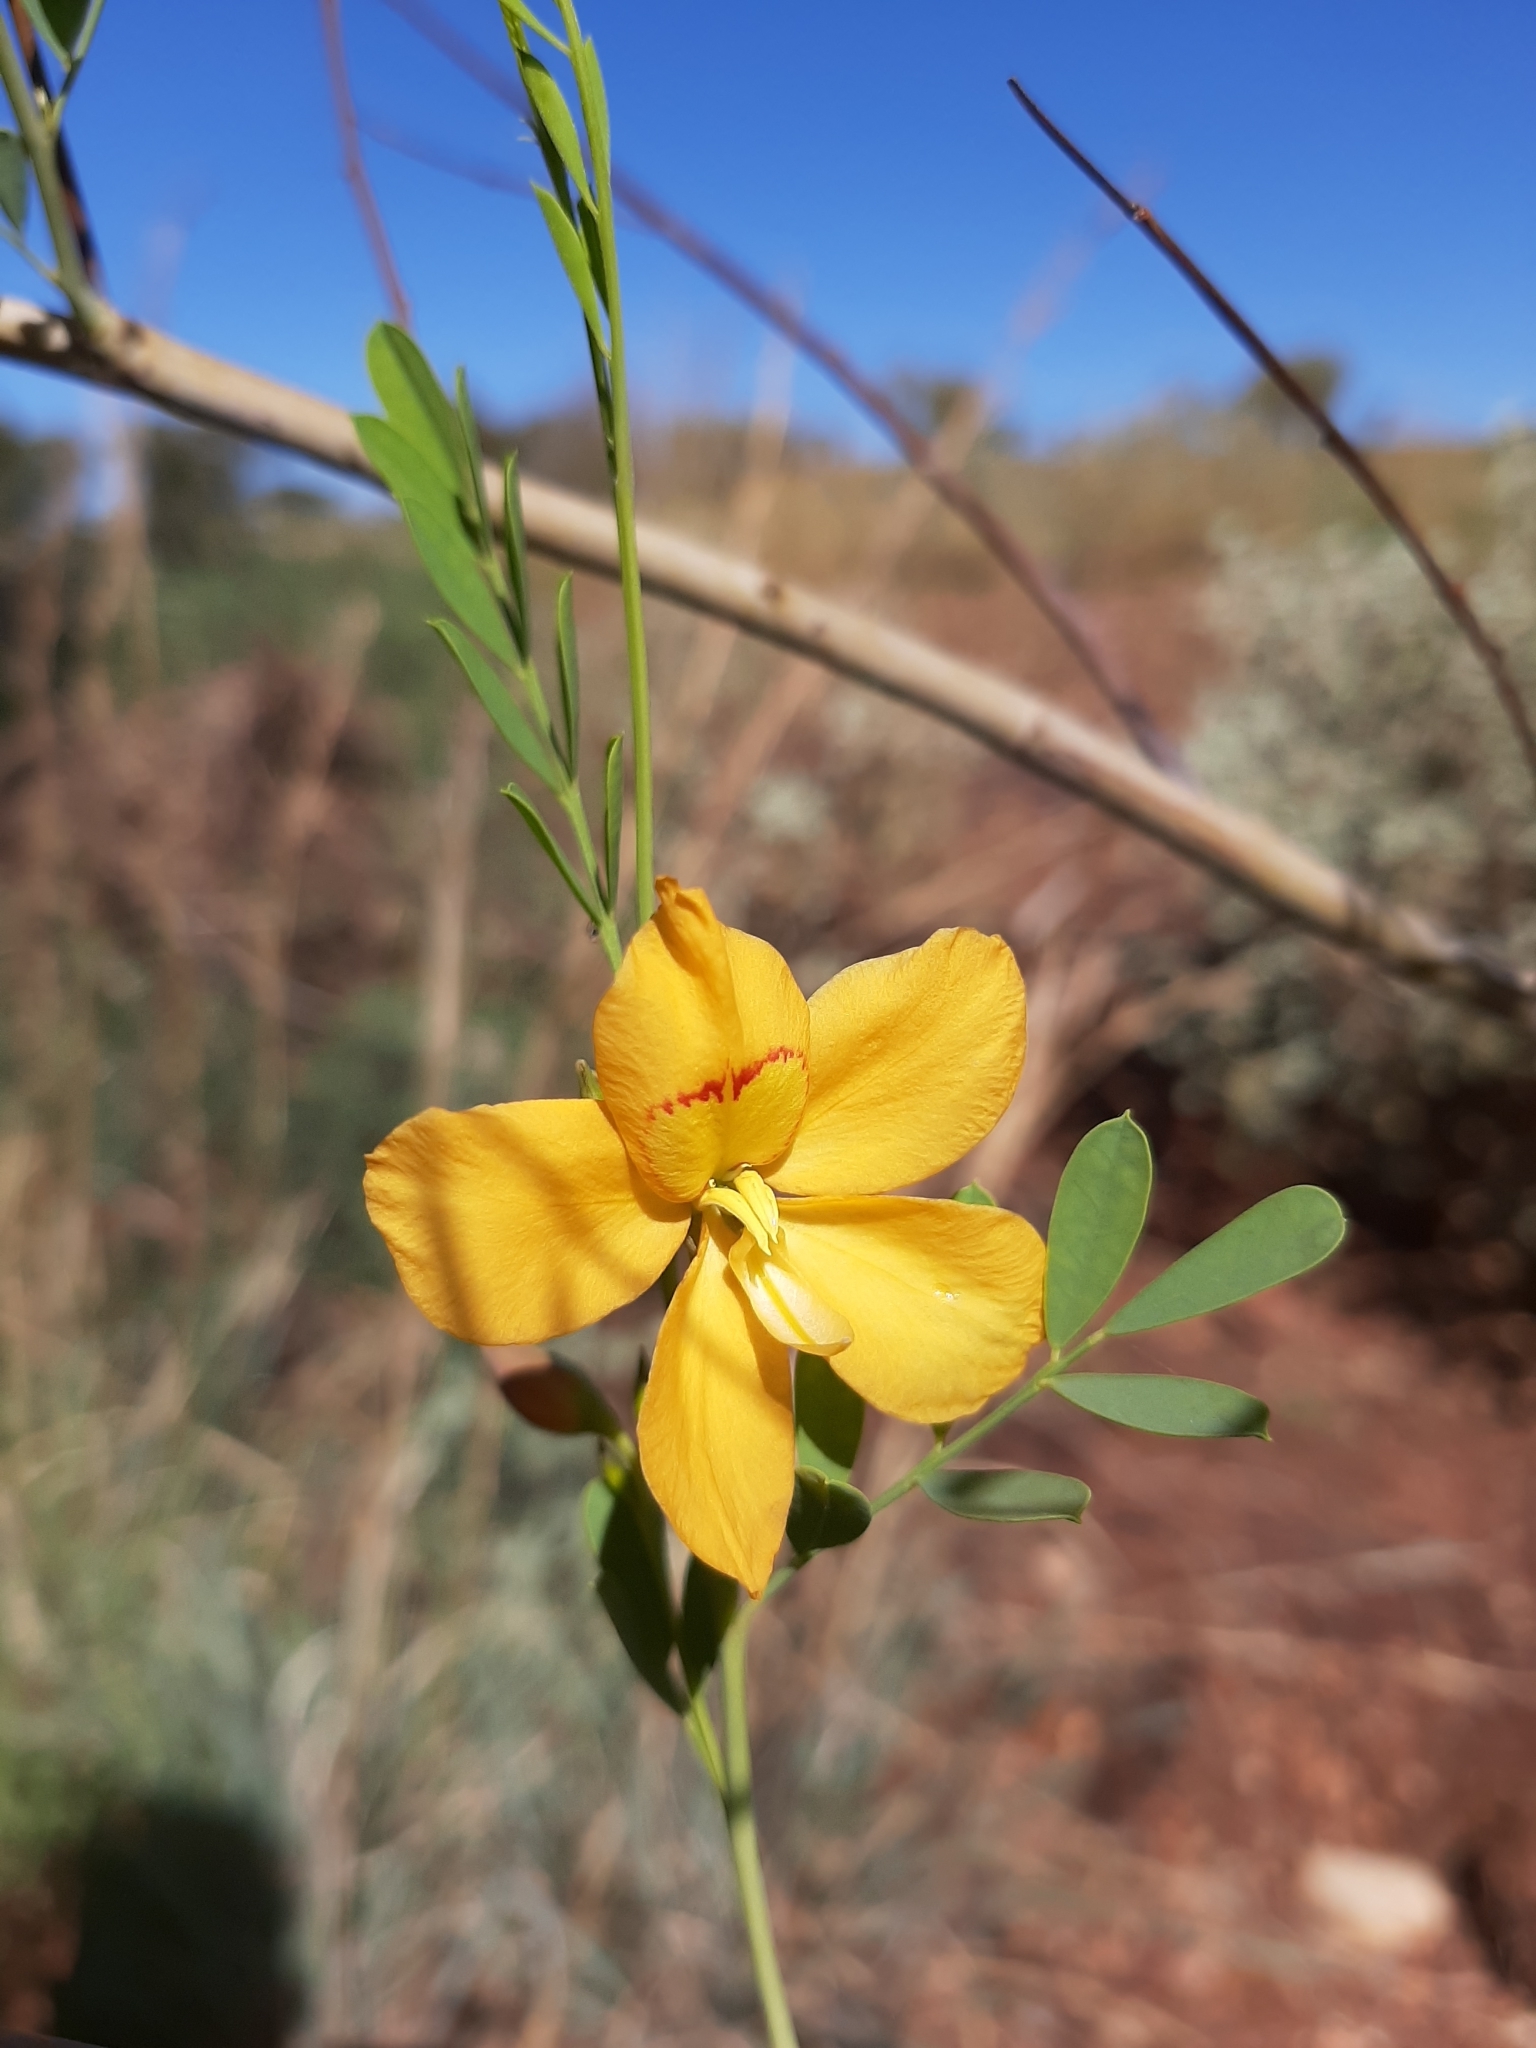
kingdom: Plantae
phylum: Tracheophyta
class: Magnoliopsida
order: Fabales
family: Fabaceae
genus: Petalostylis
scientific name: Petalostylis labicheoides
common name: Butterfly bush
